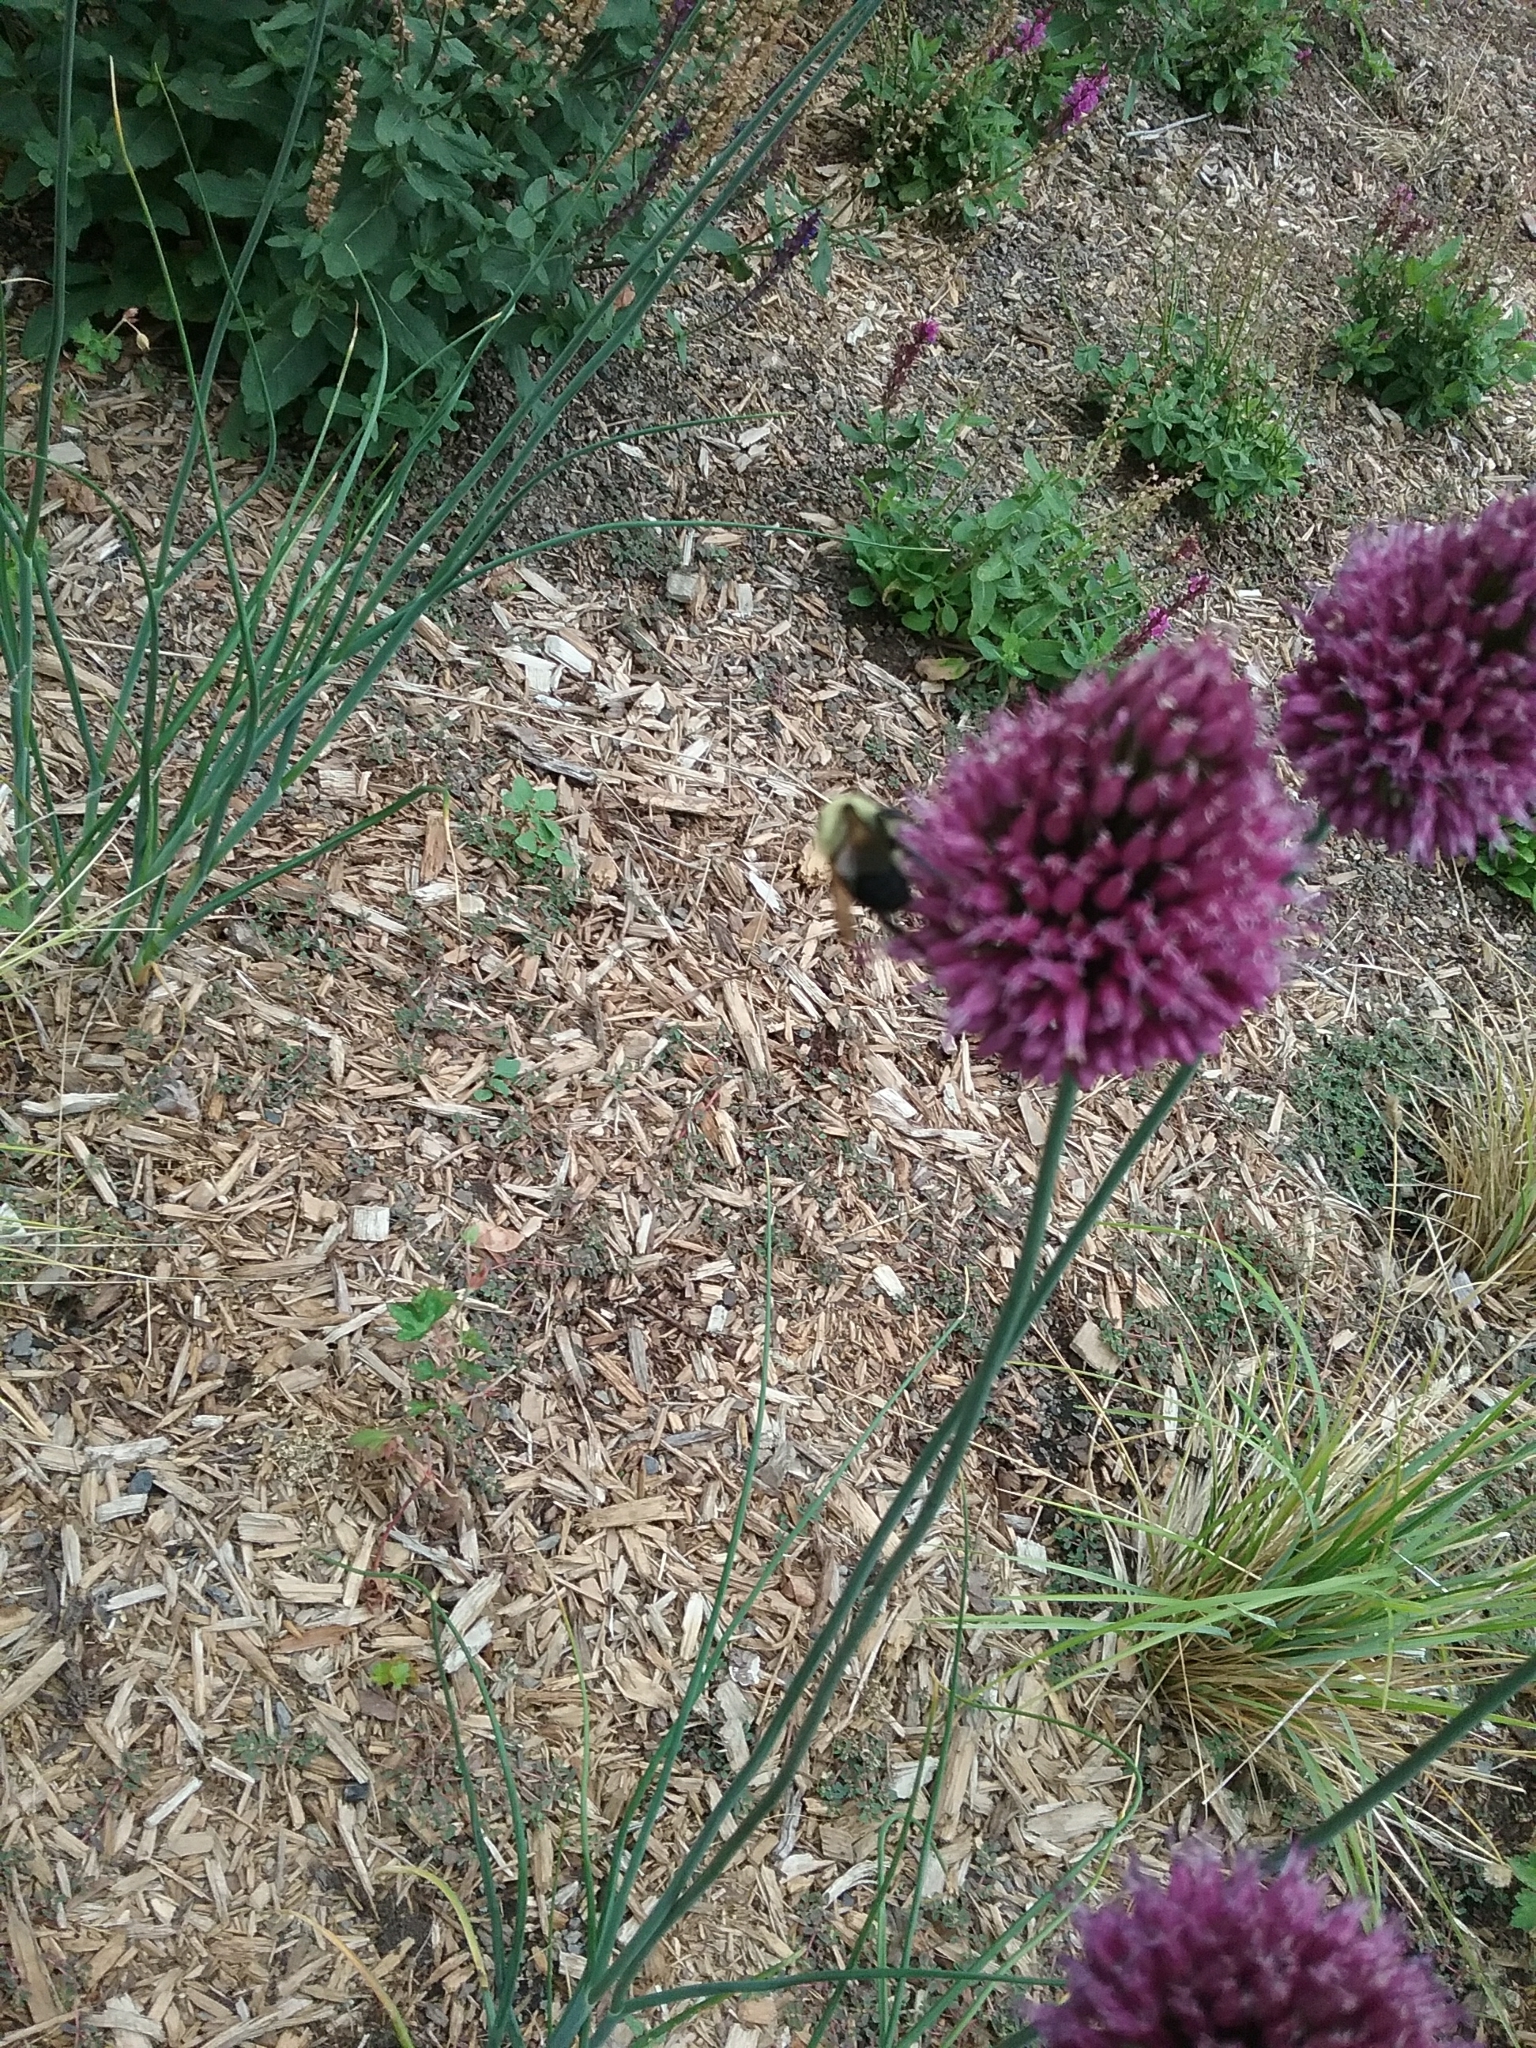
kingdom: Animalia
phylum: Arthropoda
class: Insecta
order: Hymenoptera
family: Apidae
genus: Bombus
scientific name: Bombus
